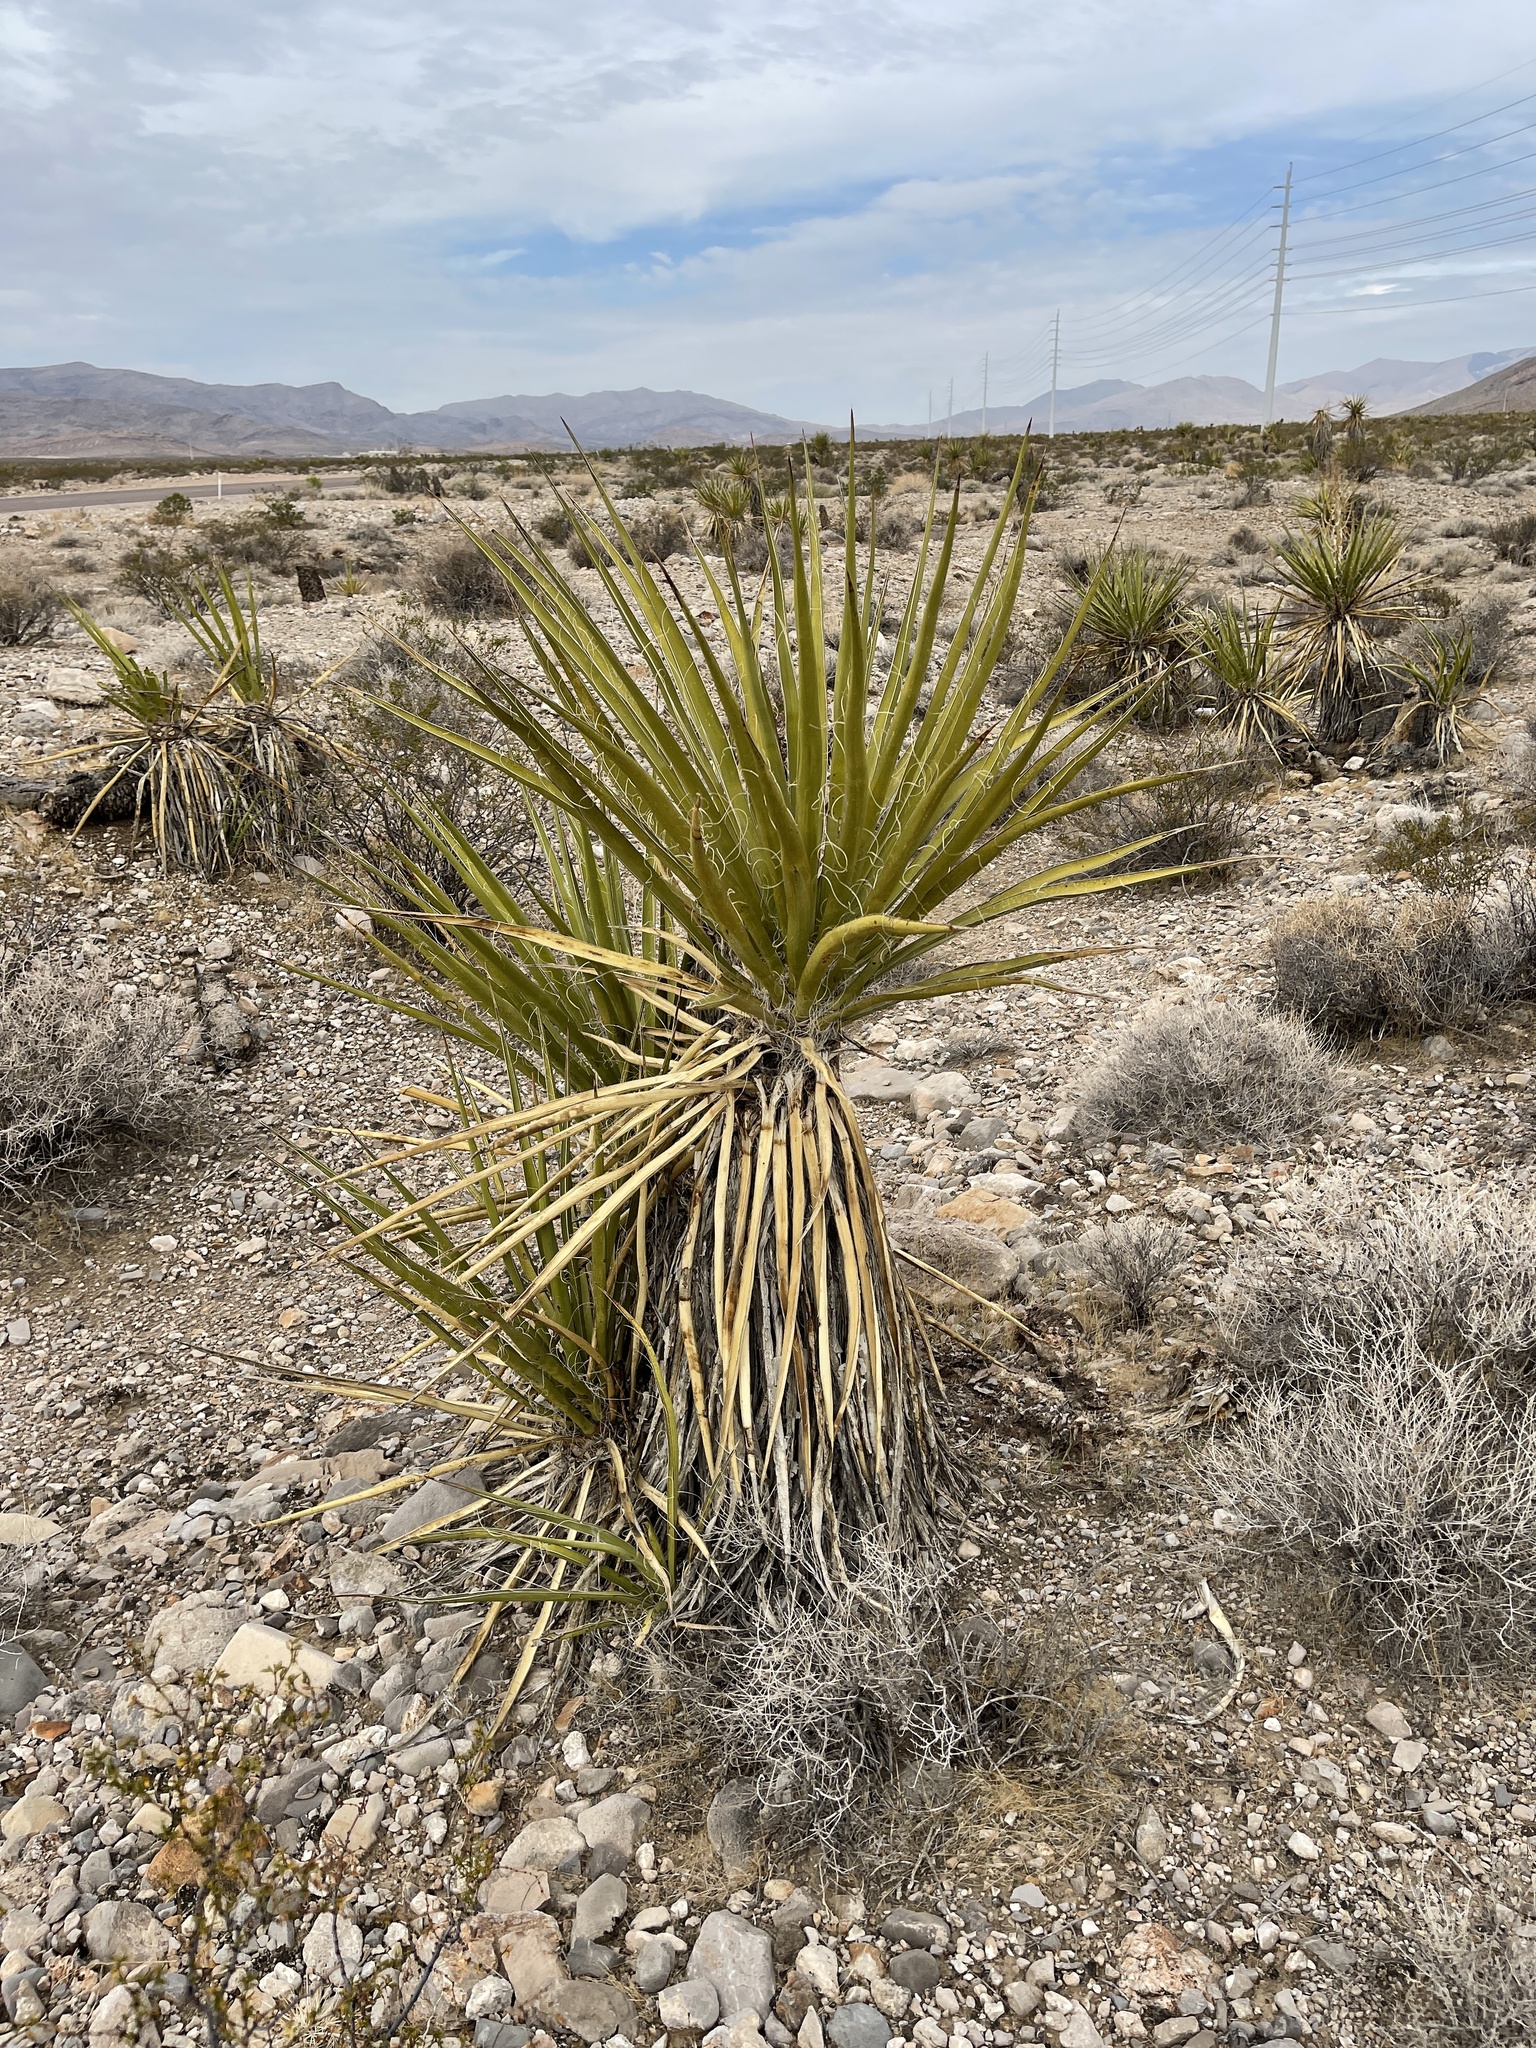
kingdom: Plantae
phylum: Tracheophyta
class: Liliopsida
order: Asparagales
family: Asparagaceae
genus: Yucca
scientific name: Yucca schidigera
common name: Mojave yucca
